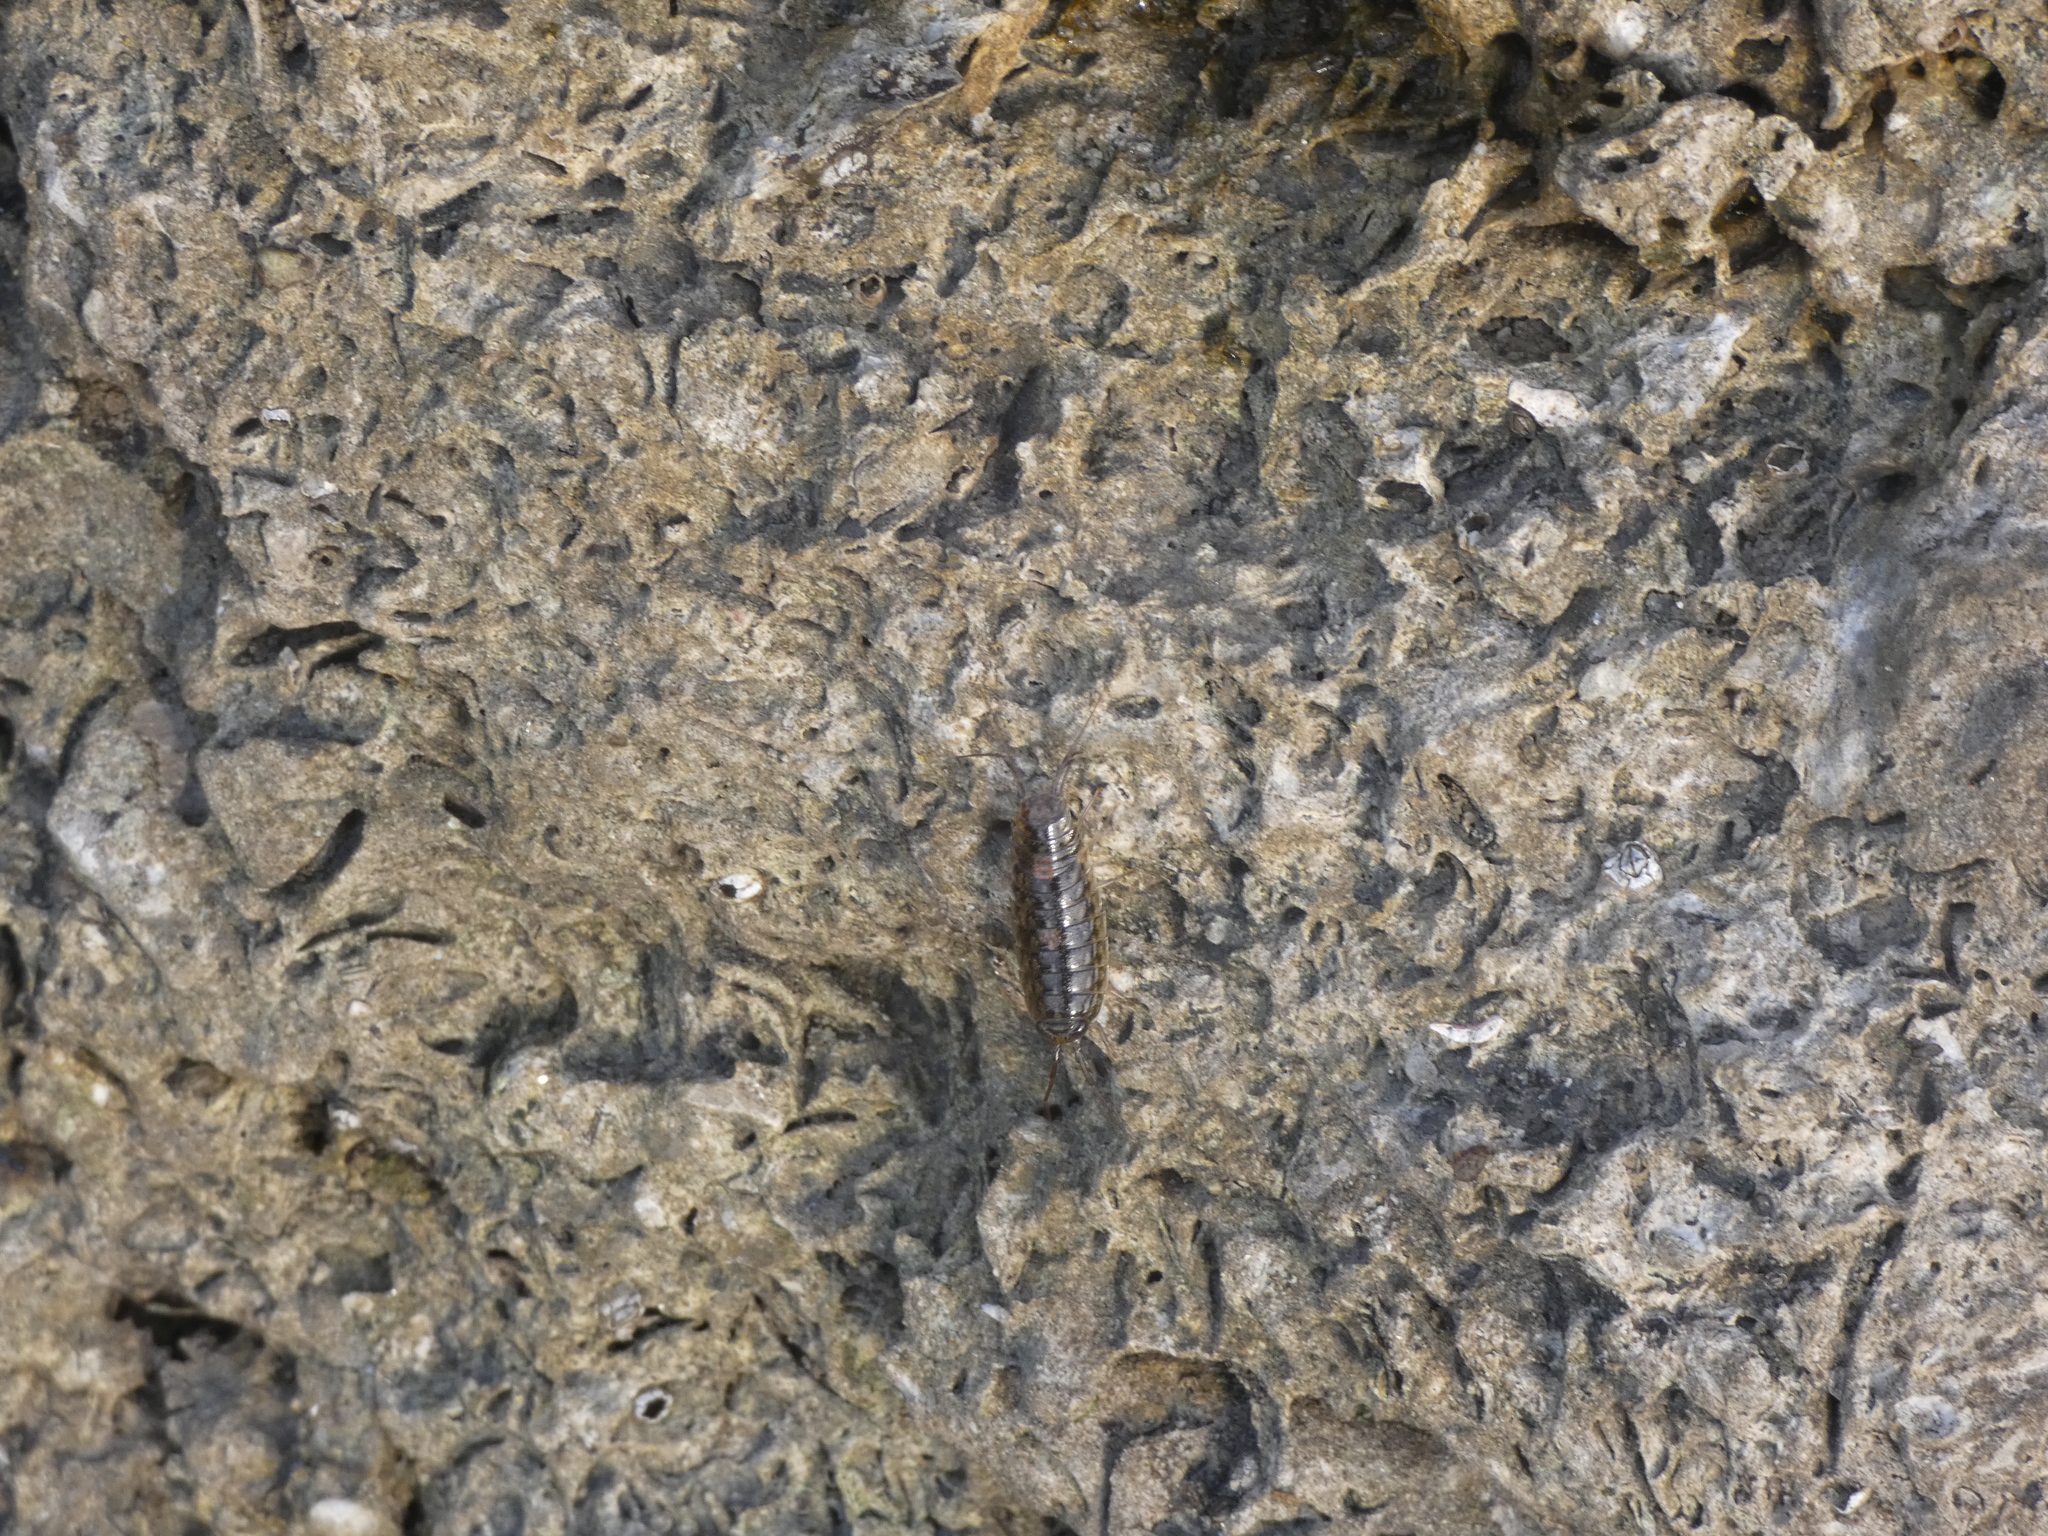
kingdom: Animalia
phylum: Arthropoda
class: Malacostraca
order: Isopoda
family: Ligiidae
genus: Ligia
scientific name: Ligia exotica
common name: Wharf roach
